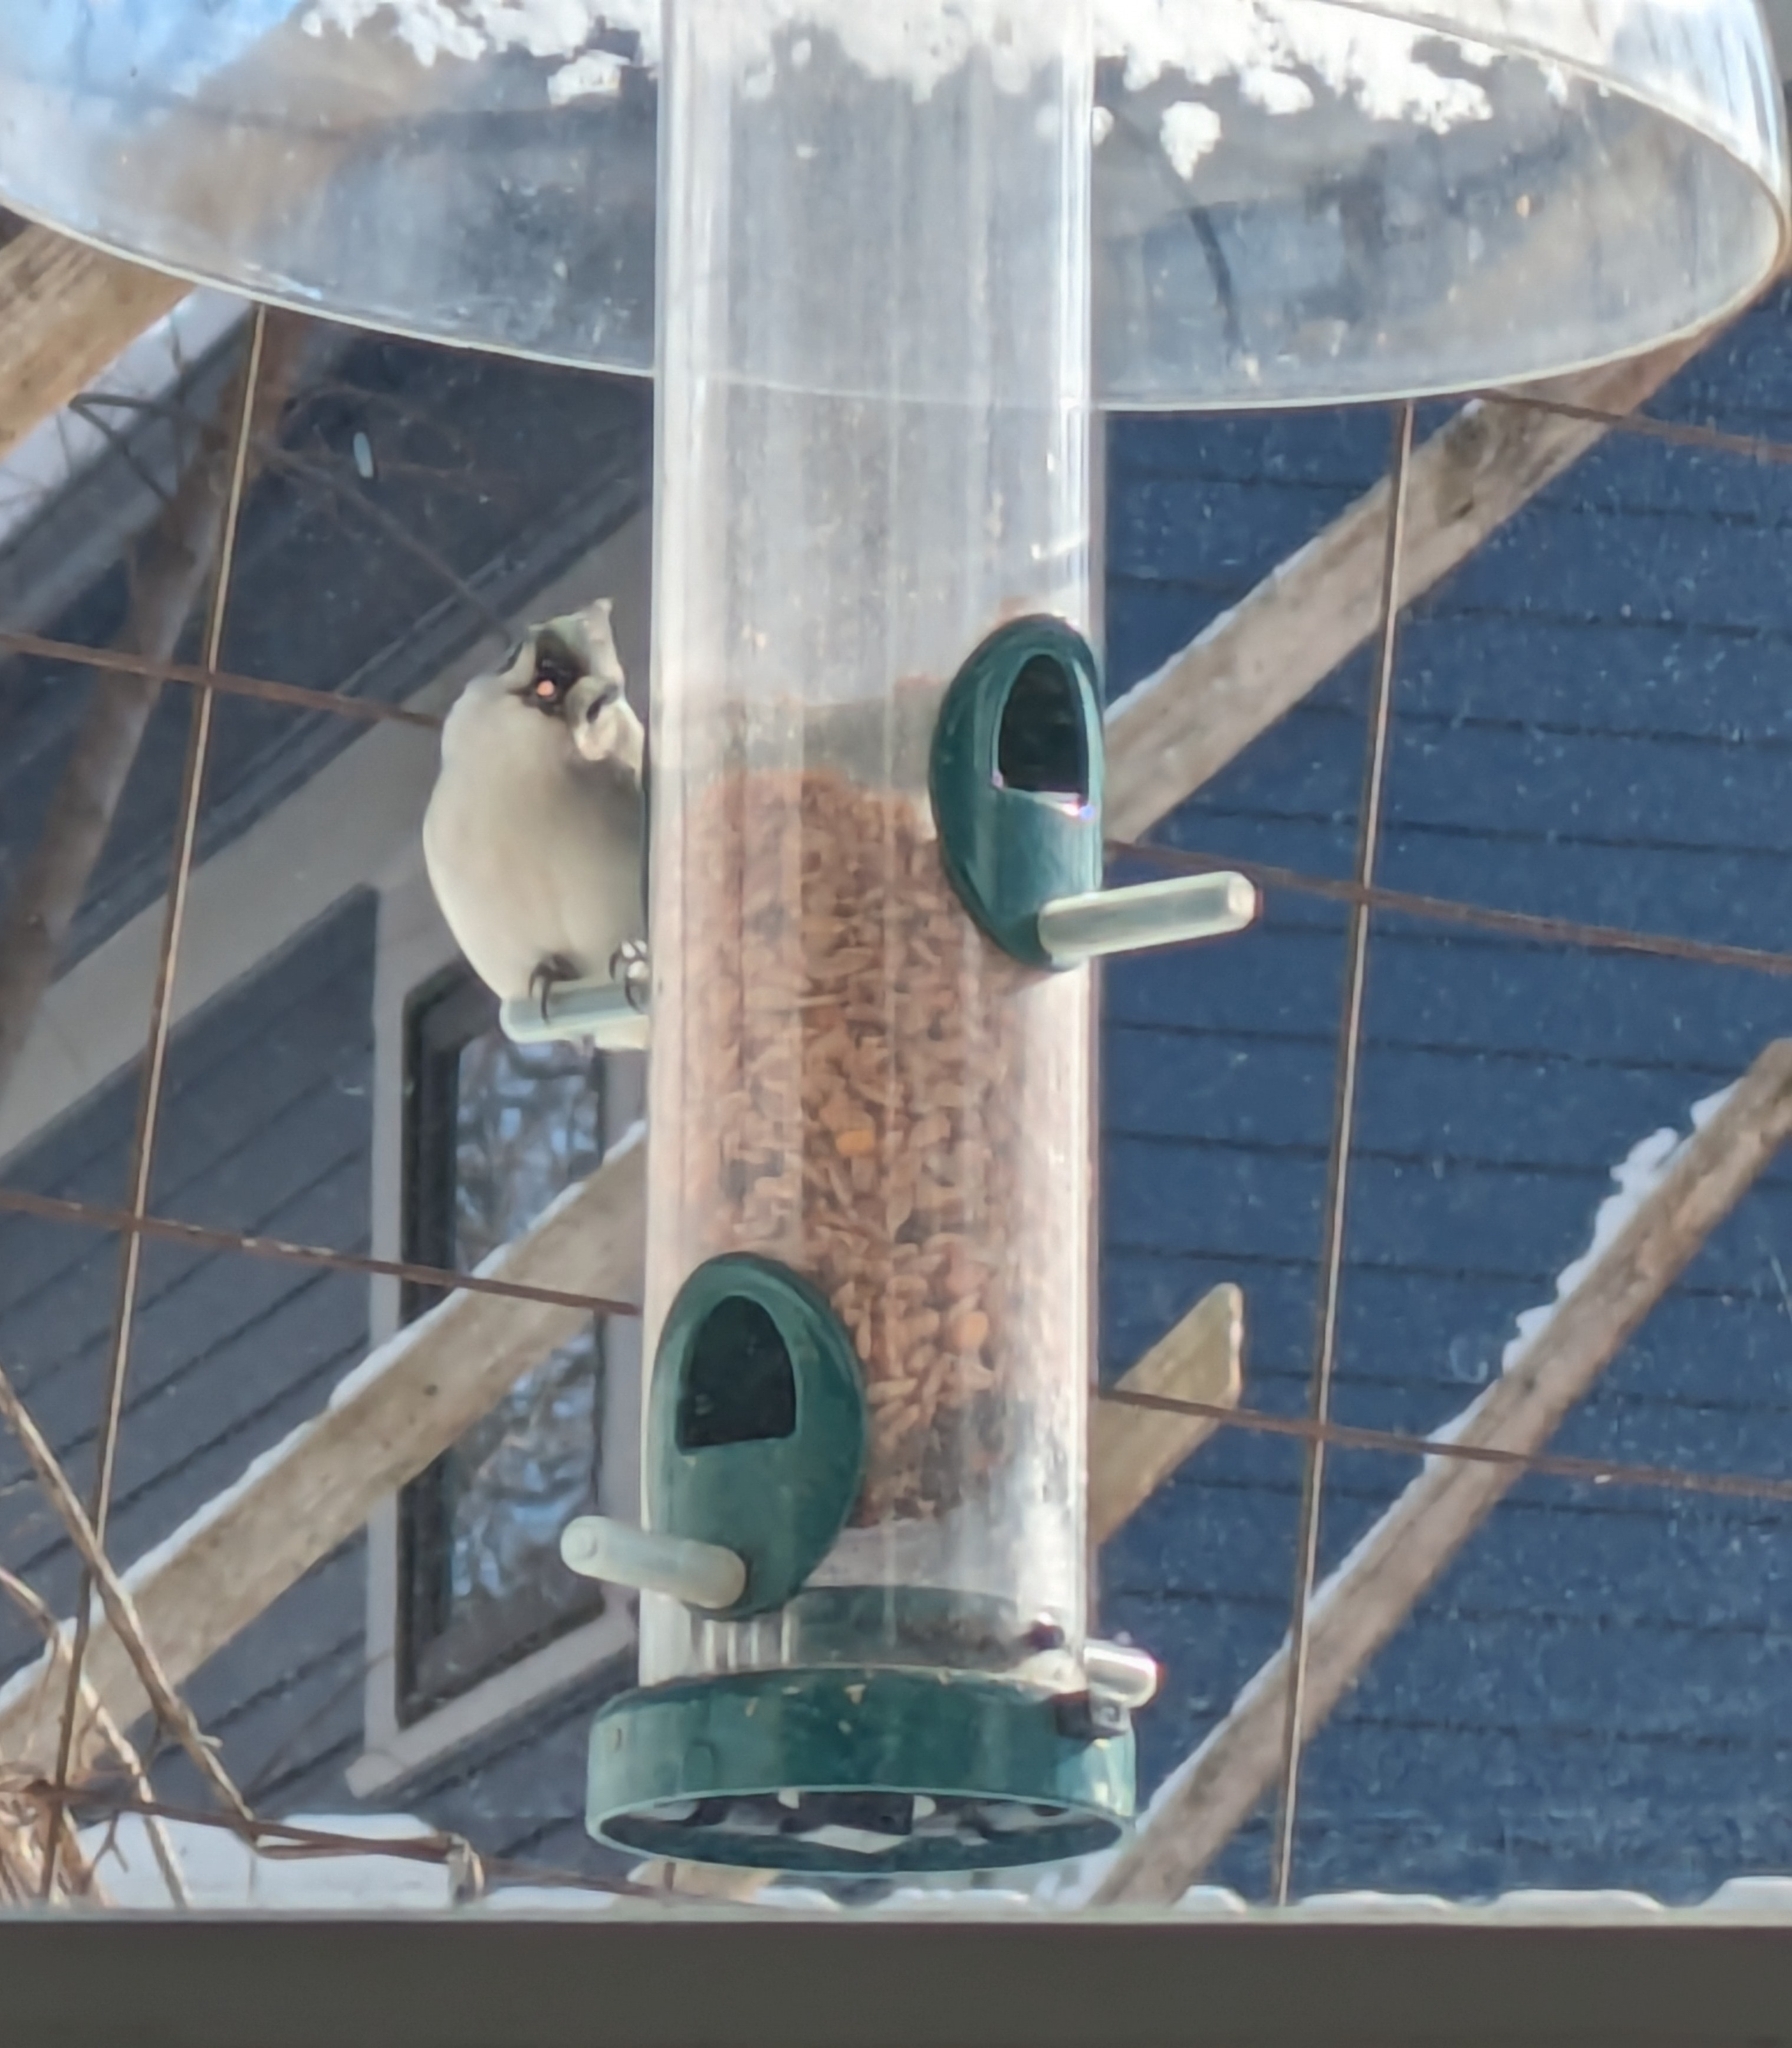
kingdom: Animalia
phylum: Chordata
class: Aves
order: Passeriformes
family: Paridae
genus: Baeolophus
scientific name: Baeolophus bicolor
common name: Tufted titmouse
